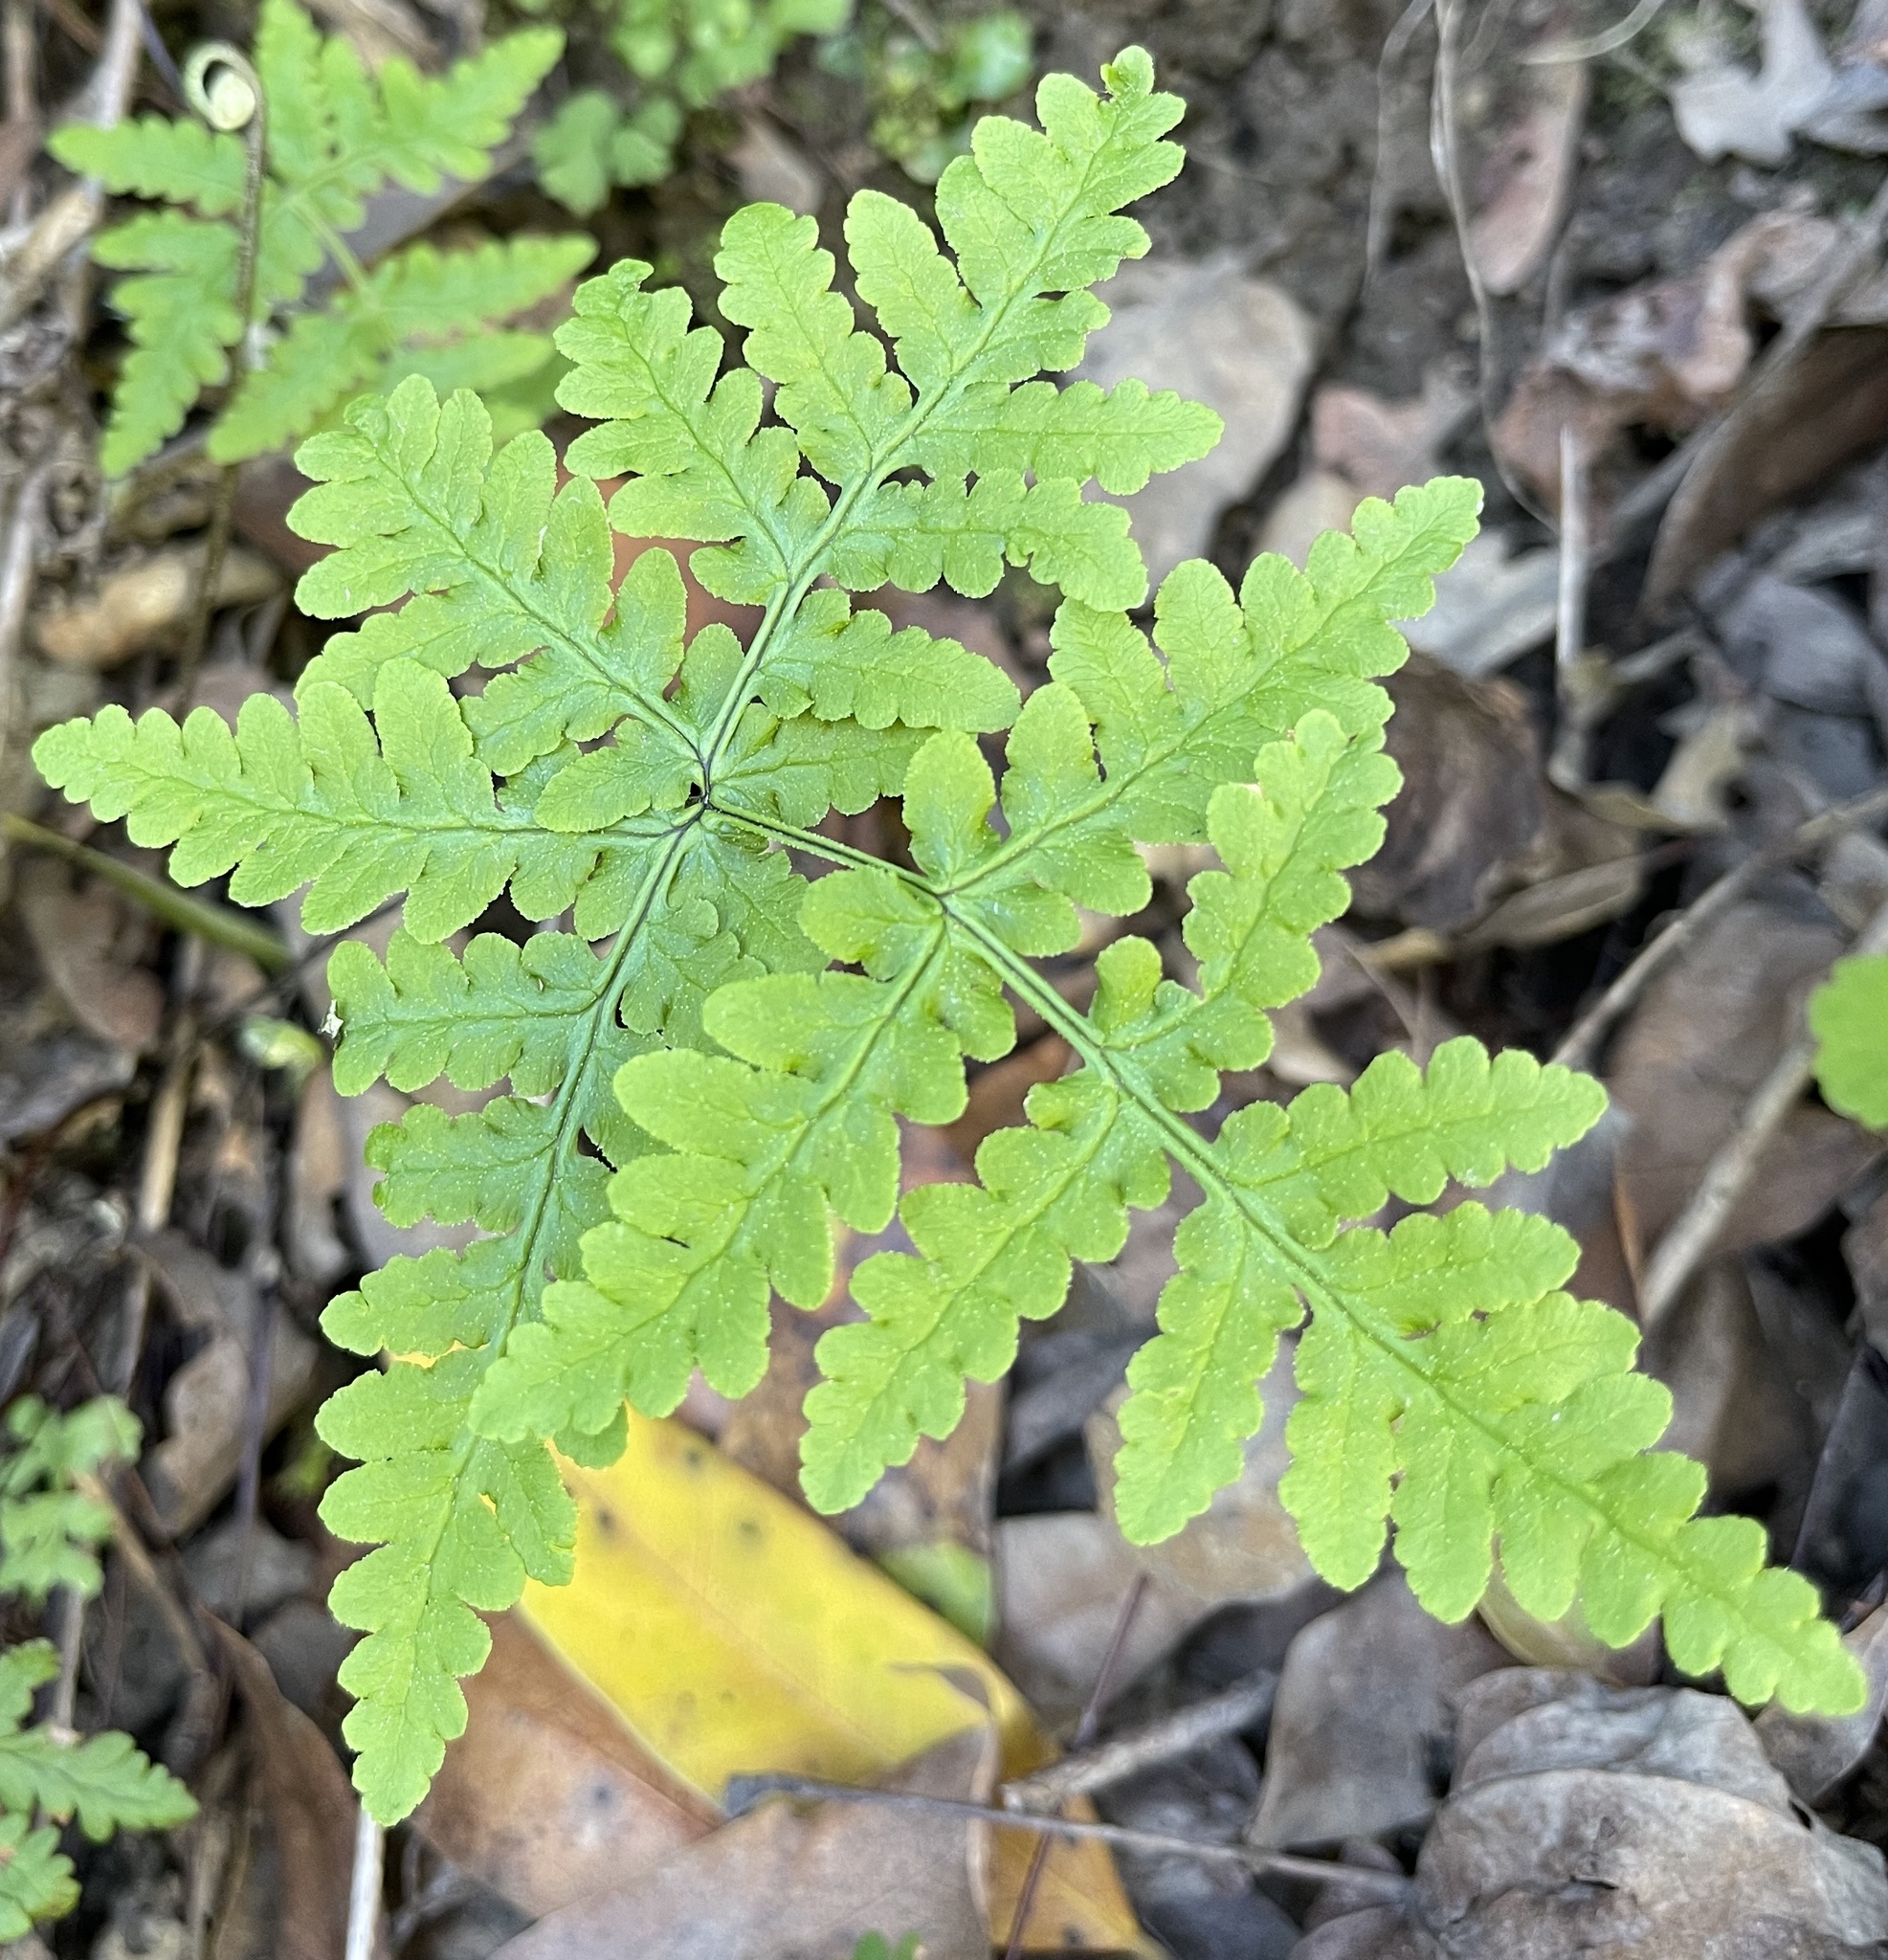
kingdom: Plantae
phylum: Tracheophyta
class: Polypodiopsida
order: Polypodiales
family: Pteridaceae
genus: Pentagramma
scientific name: Pentagramma triangularis
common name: Gold fern
